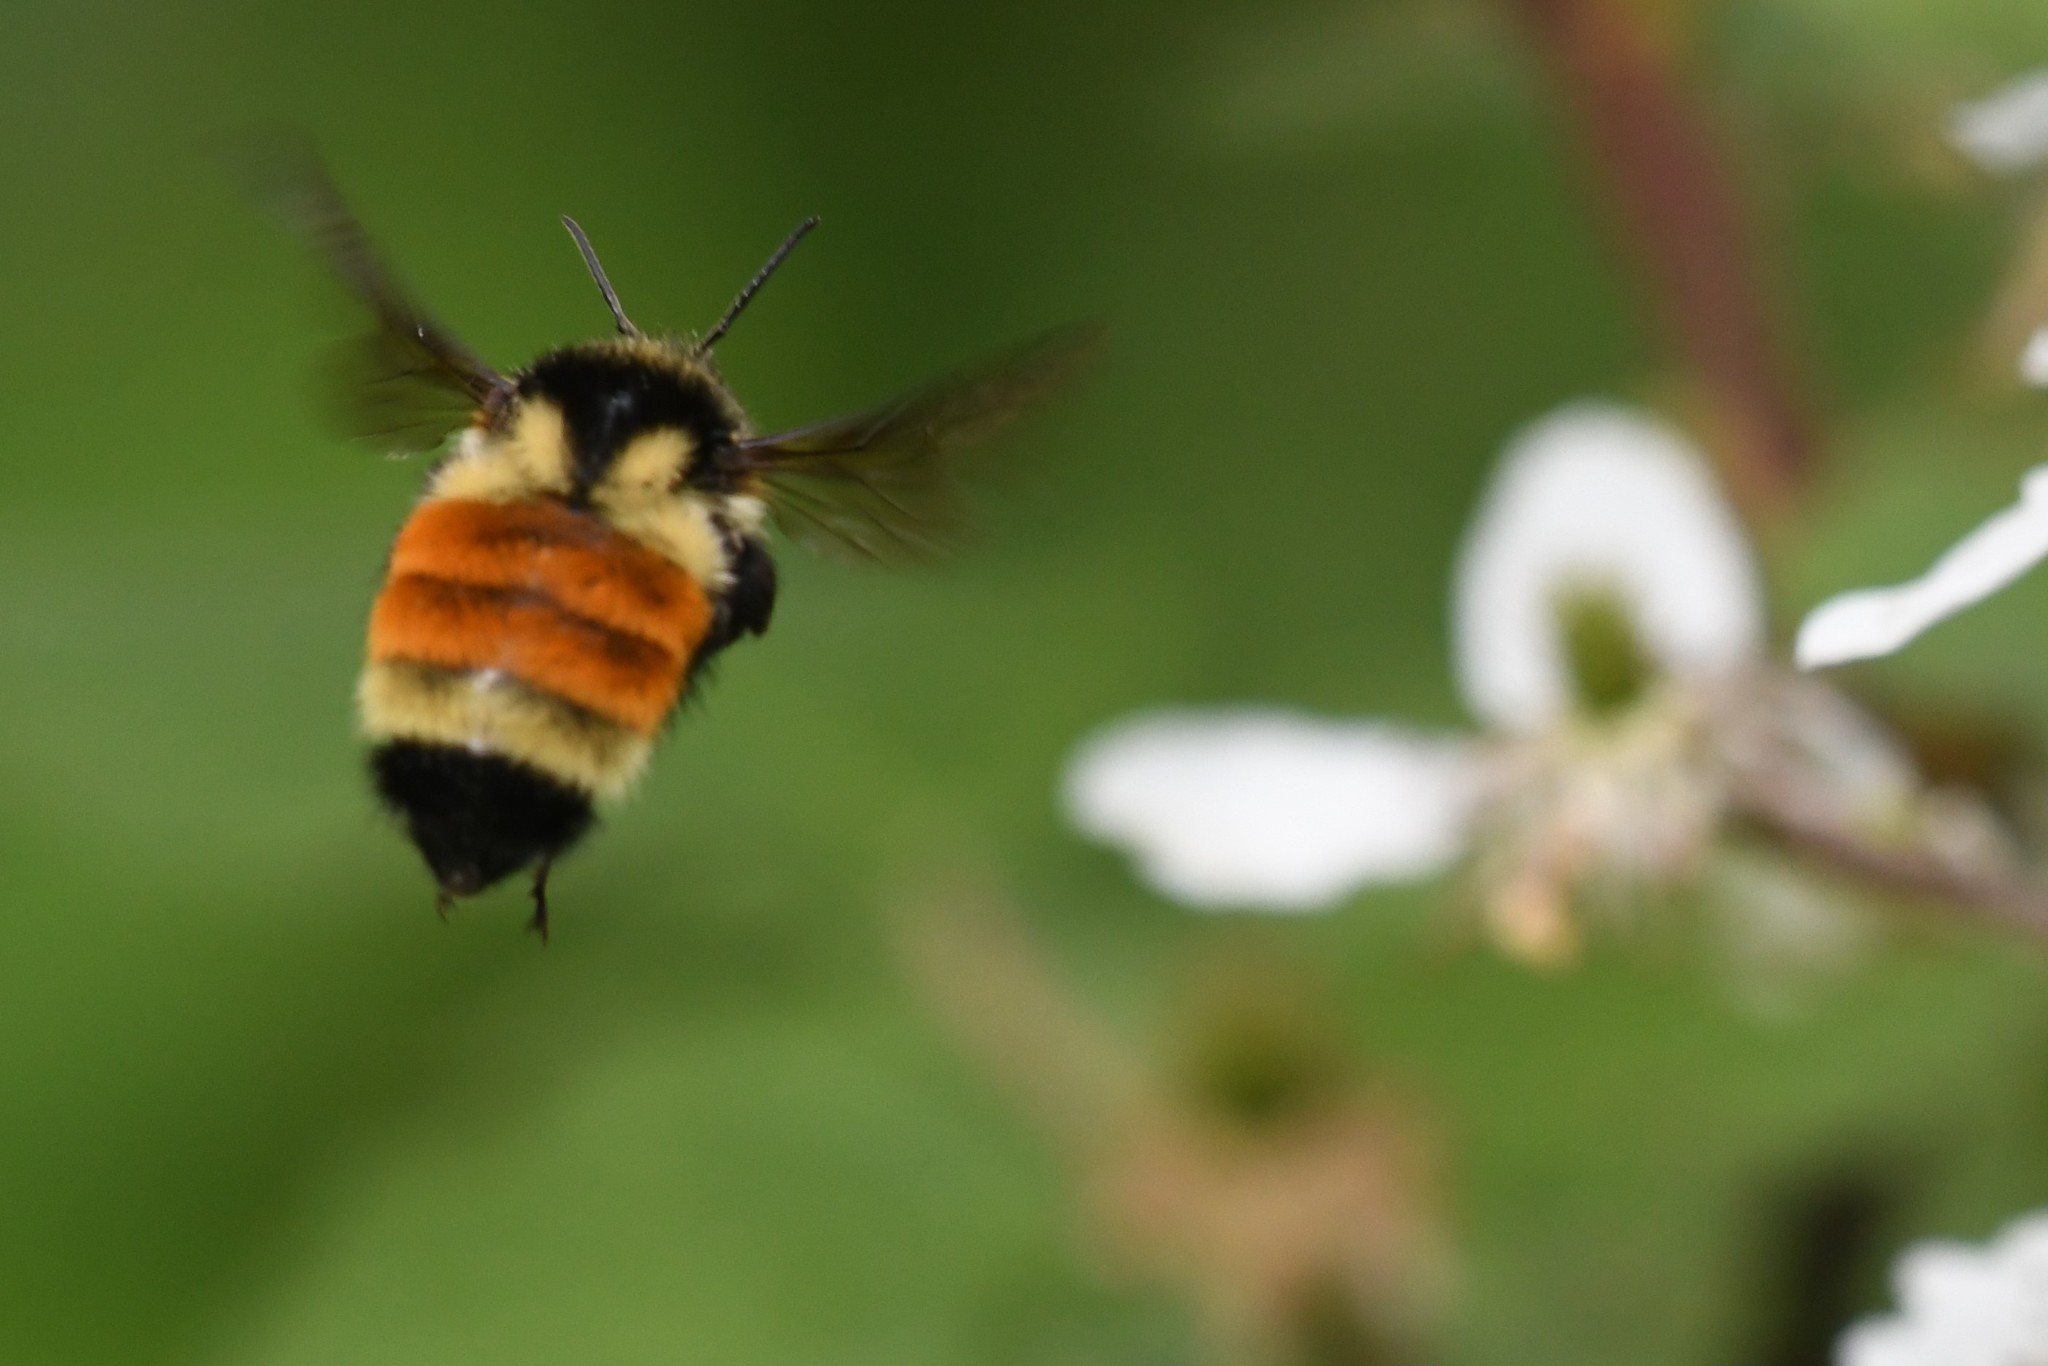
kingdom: Animalia
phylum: Arthropoda
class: Insecta
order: Hymenoptera
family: Apidae
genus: Bombus
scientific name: Bombus ternarius
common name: Tri-colored bumble bee
